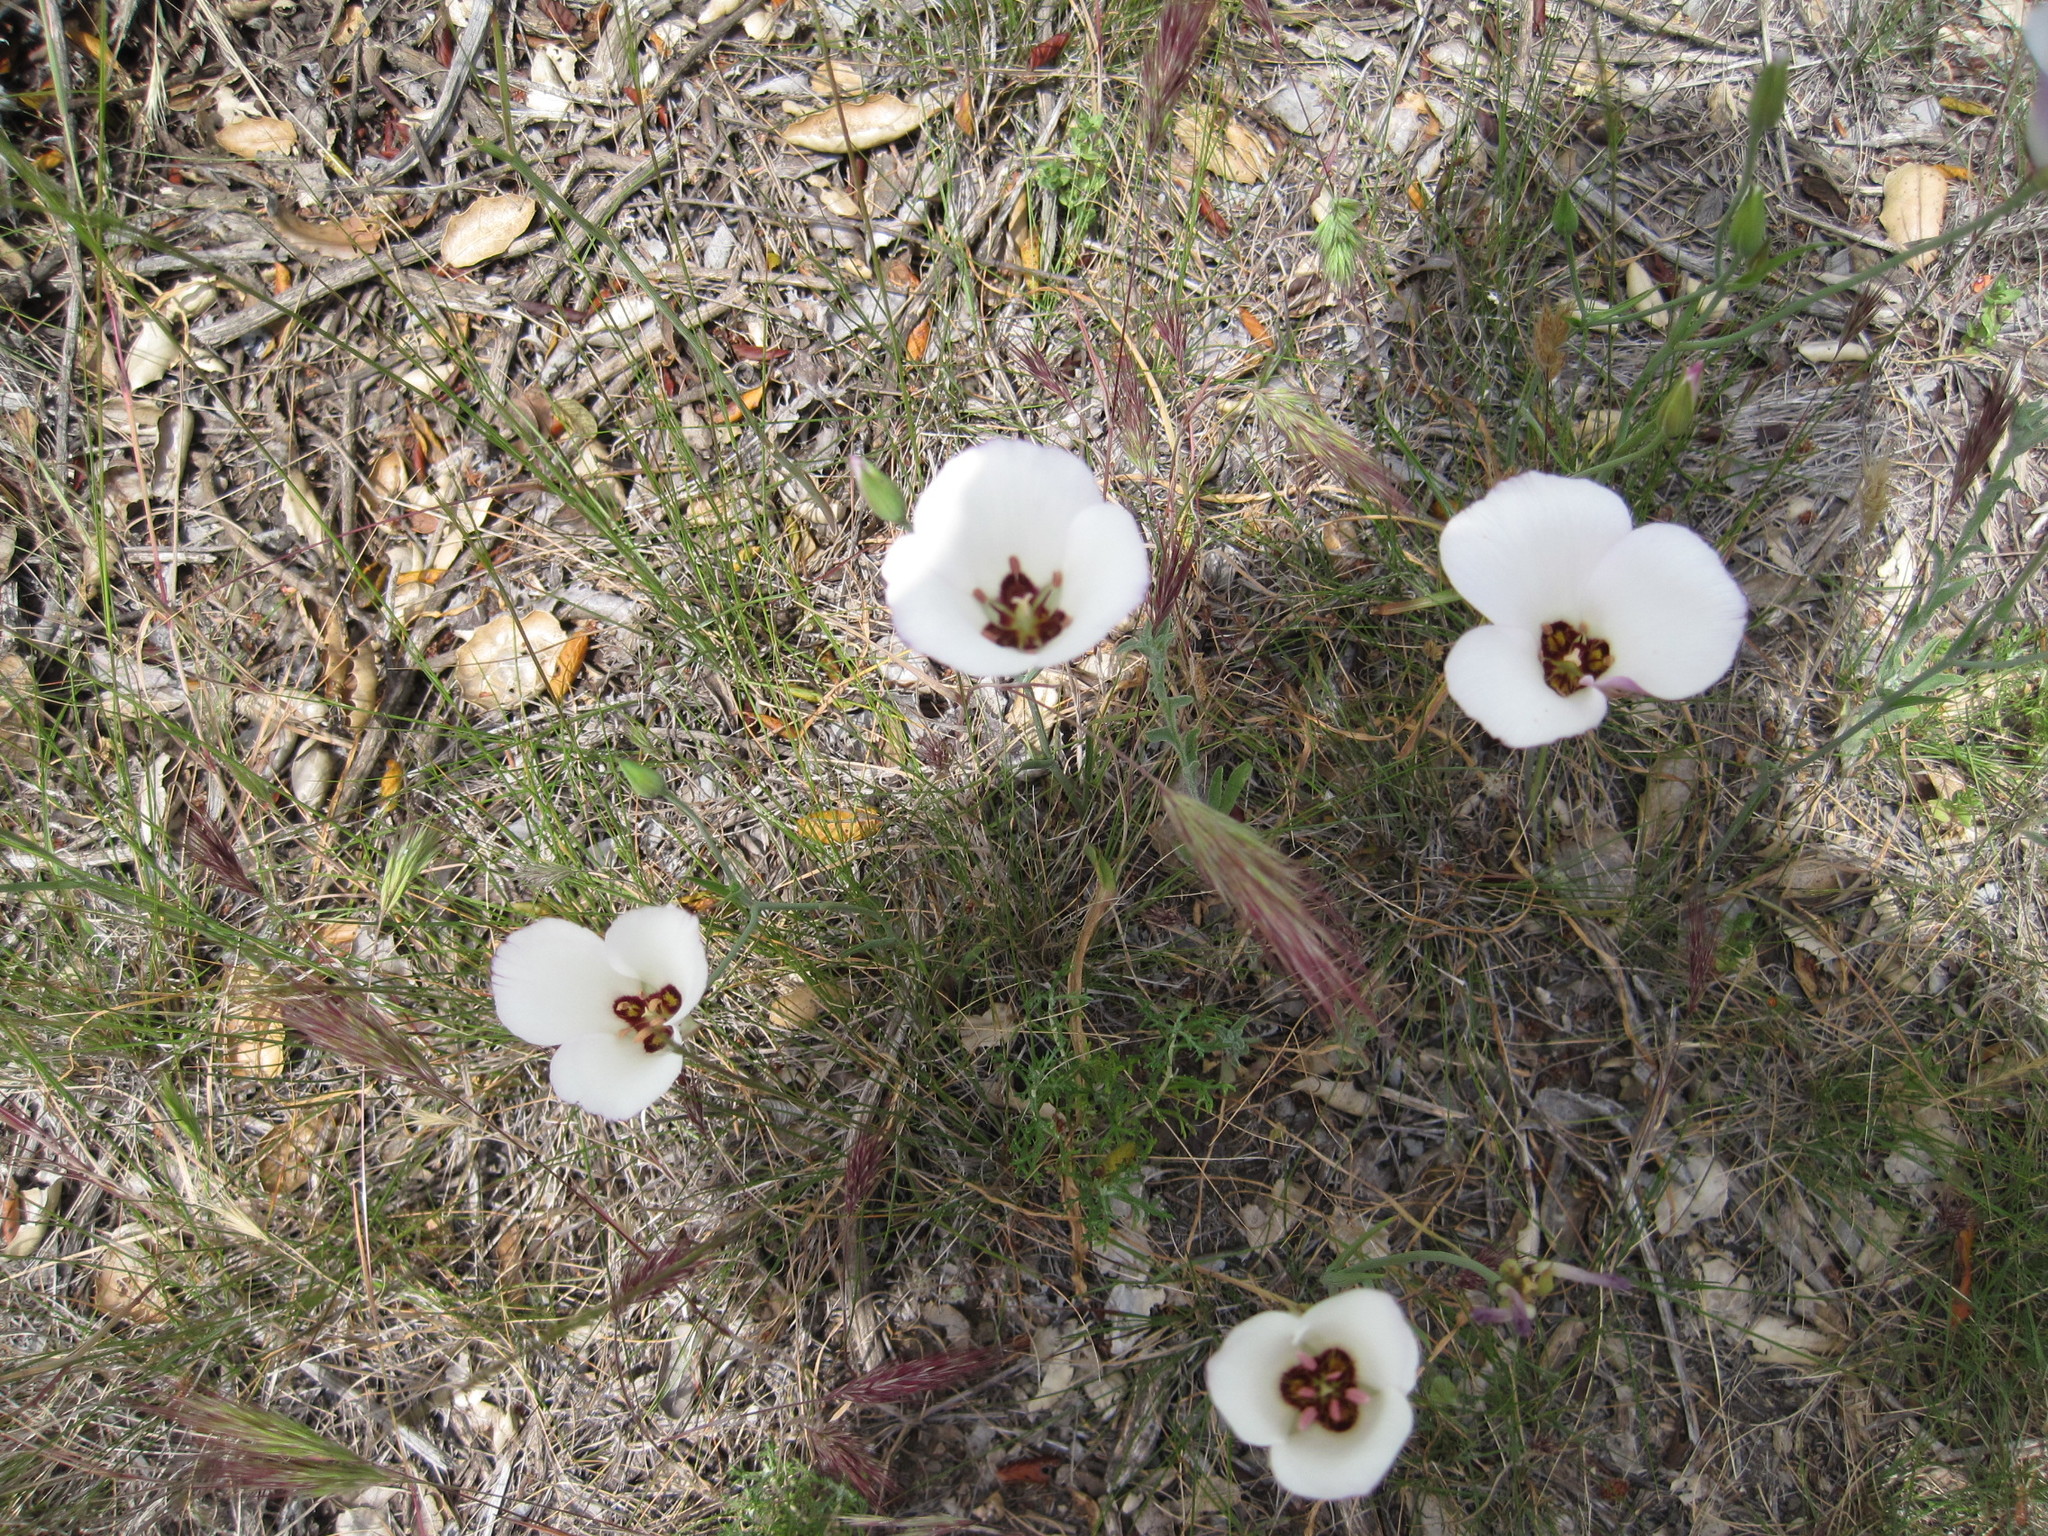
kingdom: Plantae
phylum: Tracheophyta
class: Liliopsida
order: Liliales
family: Liliaceae
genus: Calochortus
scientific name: Calochortus catalinae
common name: Catalina mariposa-lily
